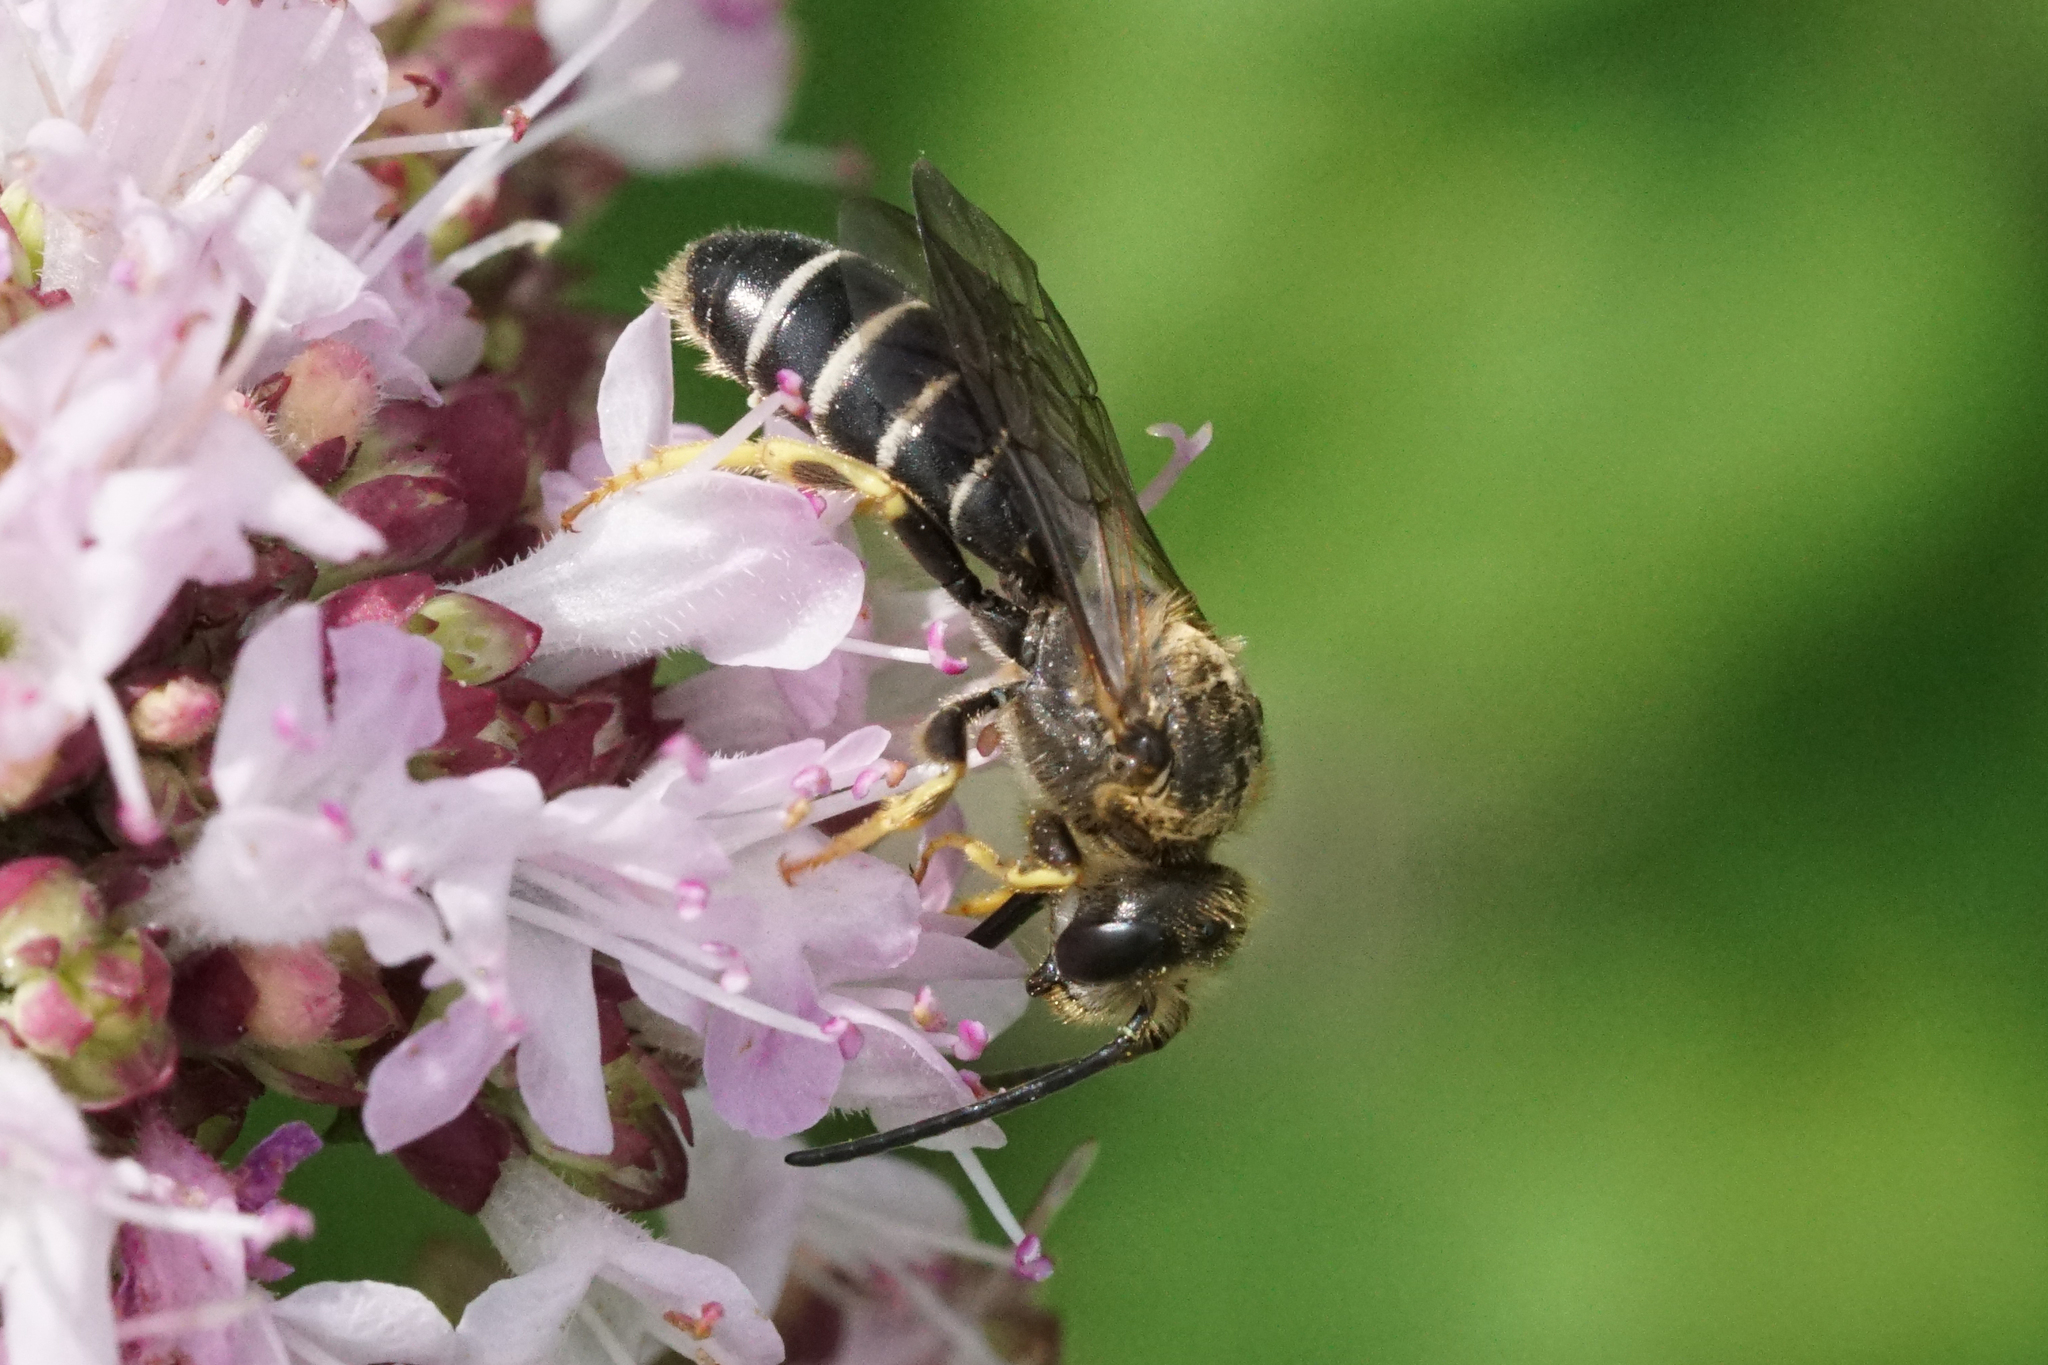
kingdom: Animalia
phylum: Arthropoda
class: Insecta
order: Hymenoptera
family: Halictidae
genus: Halictus
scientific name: Halictus rubicundus
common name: Orange-legged furrow bee
